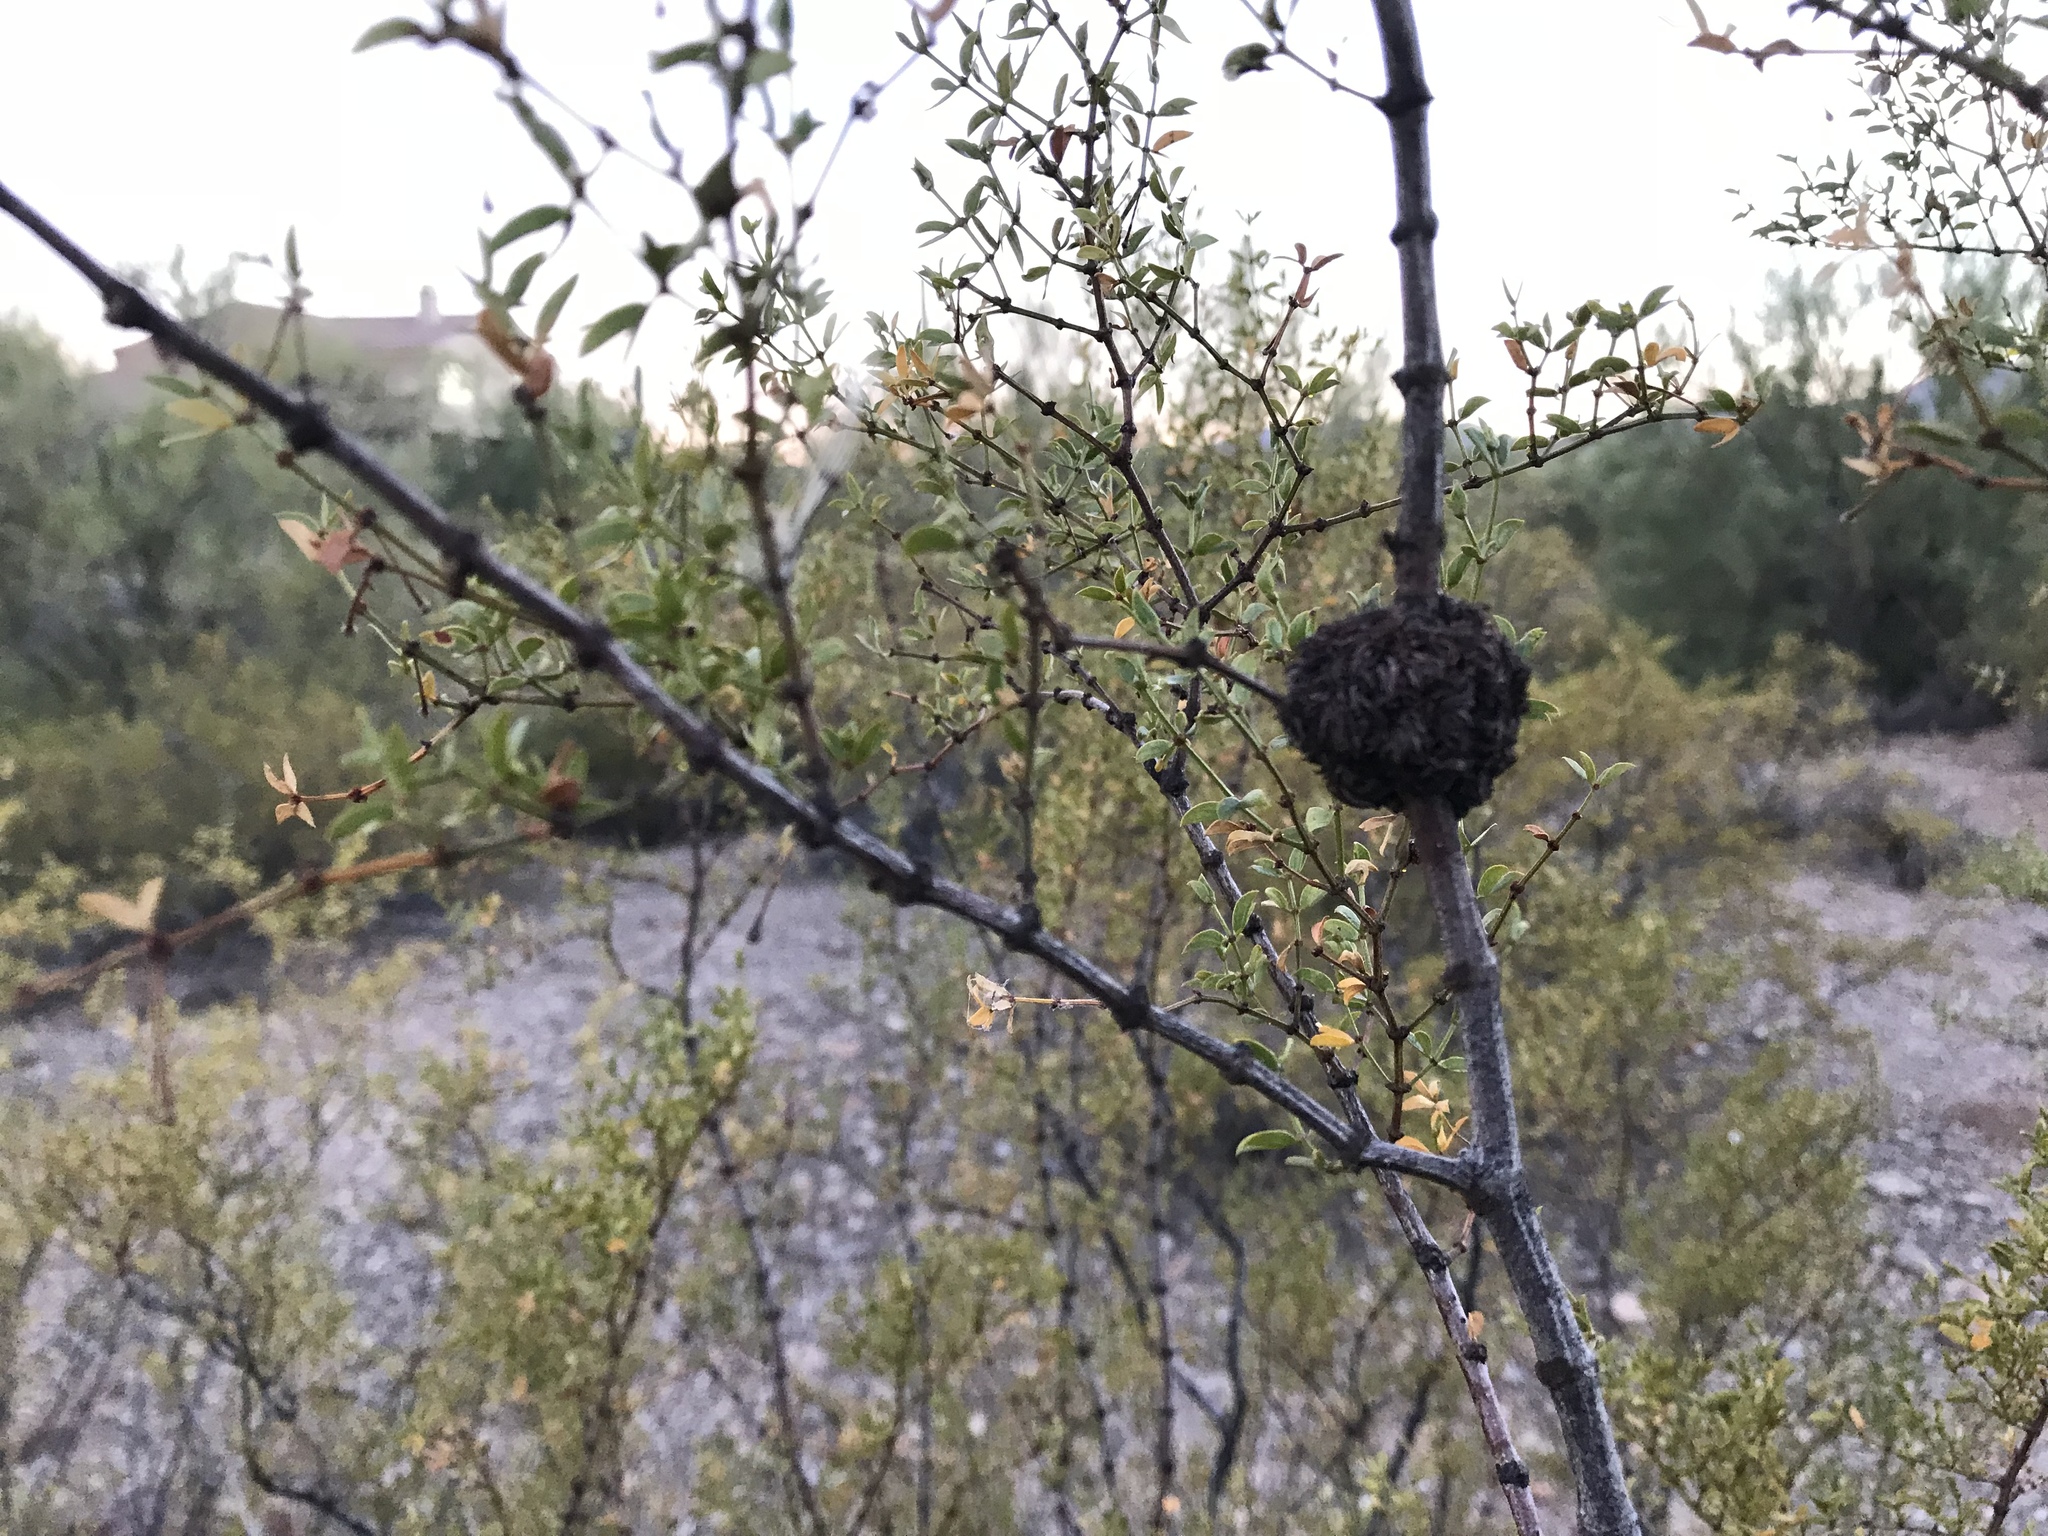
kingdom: Animalia
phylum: Arthropoda
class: Insecta
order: Diptera
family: Cecidomyiidae
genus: Asphondylia
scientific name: Asphondylia auripila
